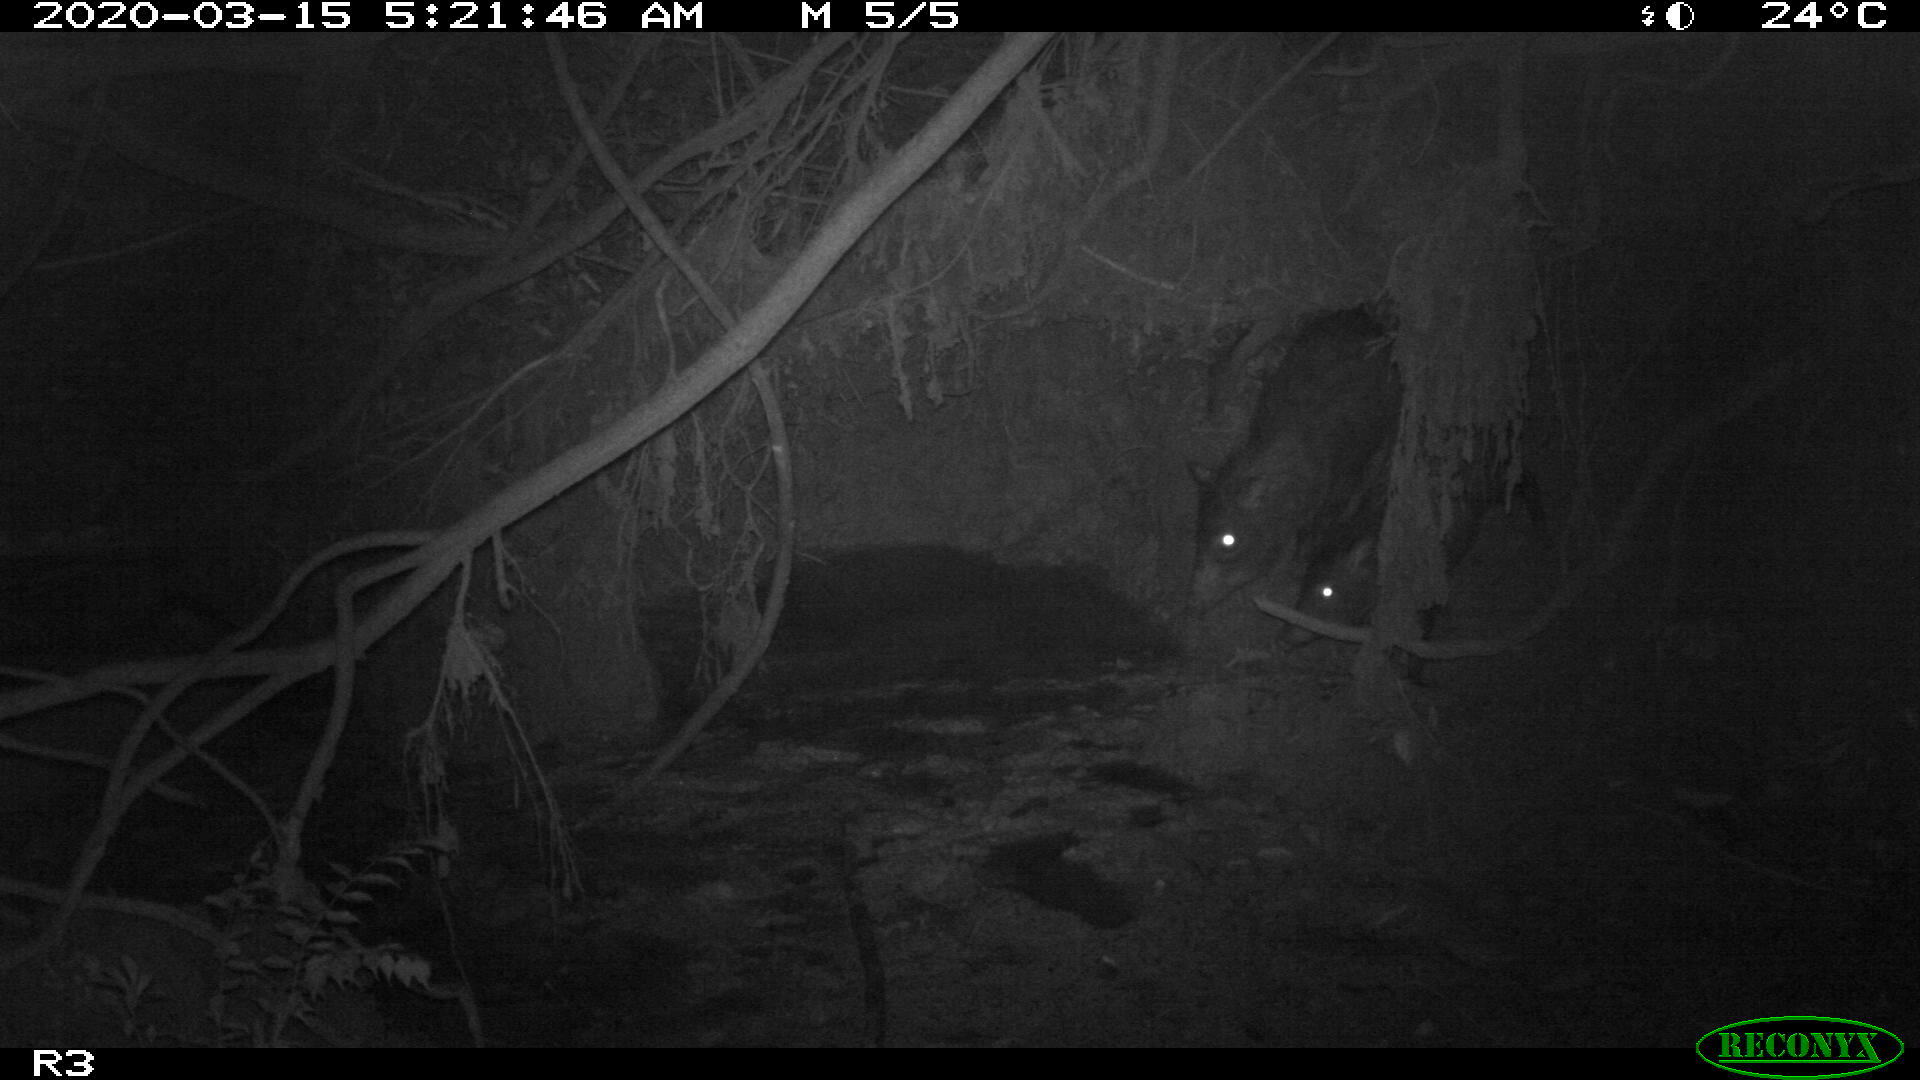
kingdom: Animalia
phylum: Chordata
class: Mammalia
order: Artiodactyla
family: Tayassuidae
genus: Tayassu
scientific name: Tayassu pecari
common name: White-lipped peccary
